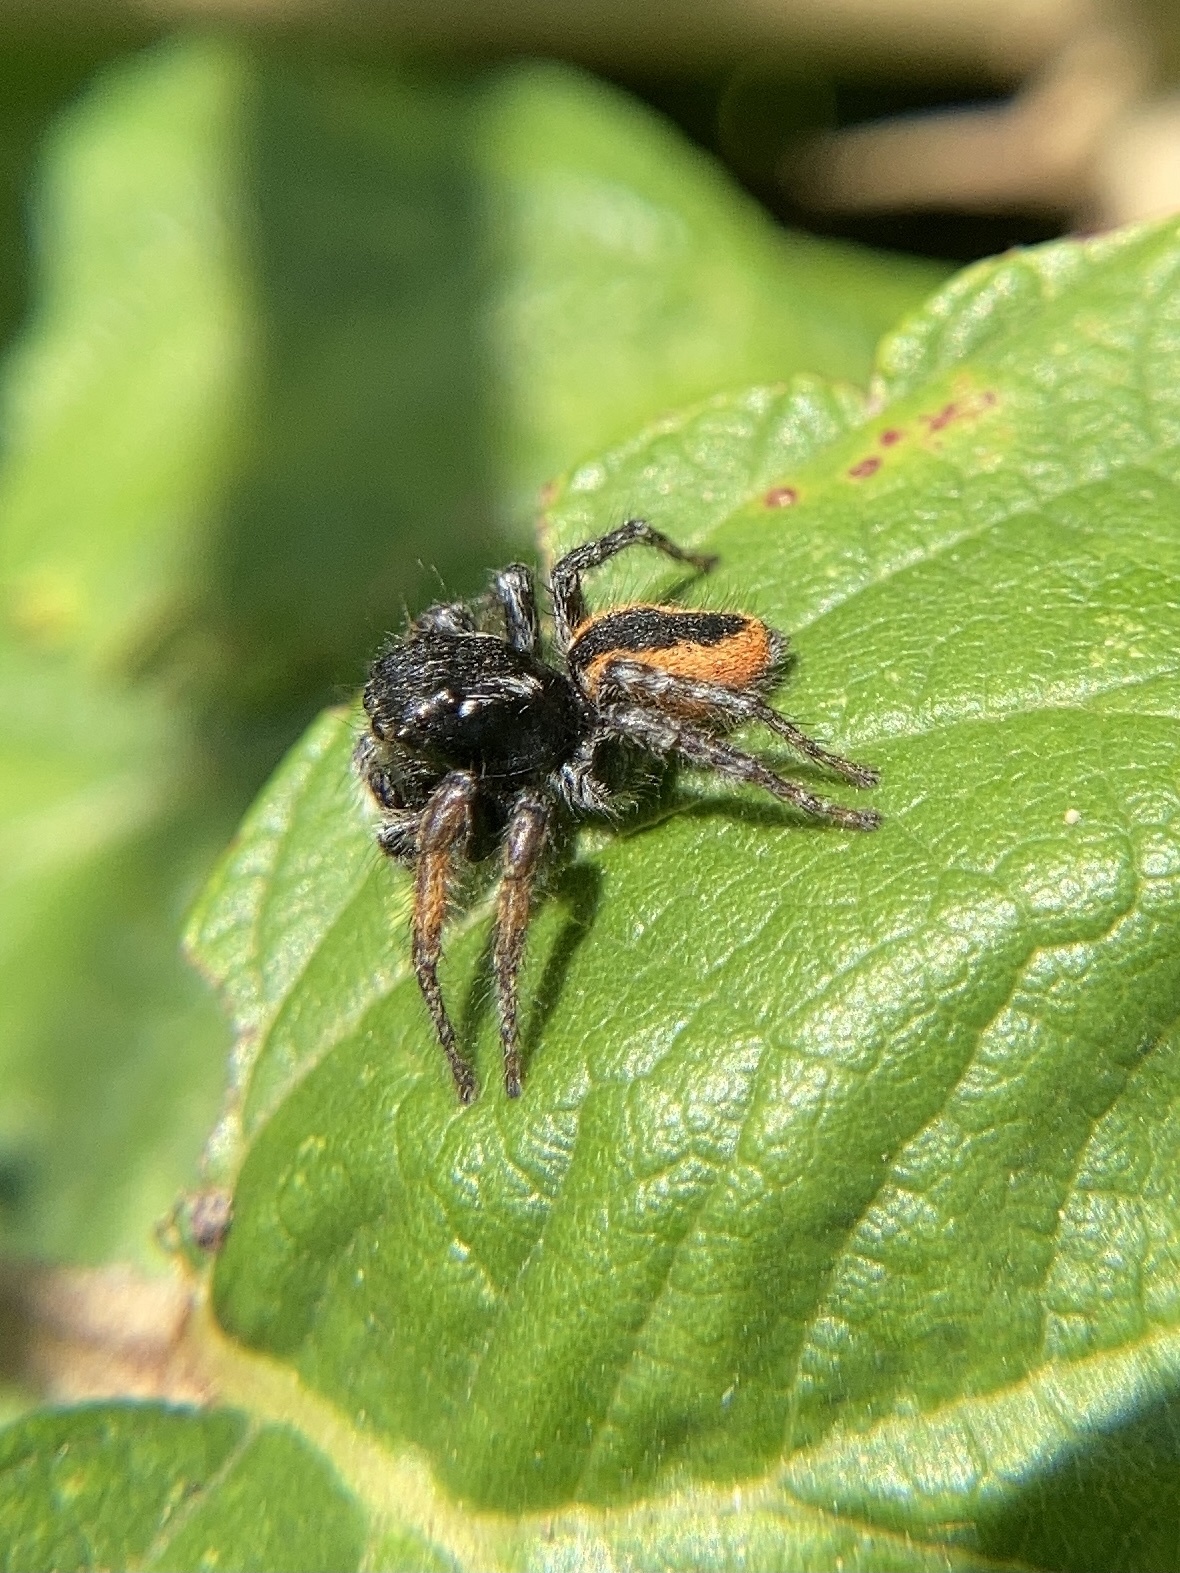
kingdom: Animalia
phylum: Arthropoda
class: Arachnida
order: Araneae
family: Salticidae
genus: Philaeus
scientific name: Philaeus chrysops
